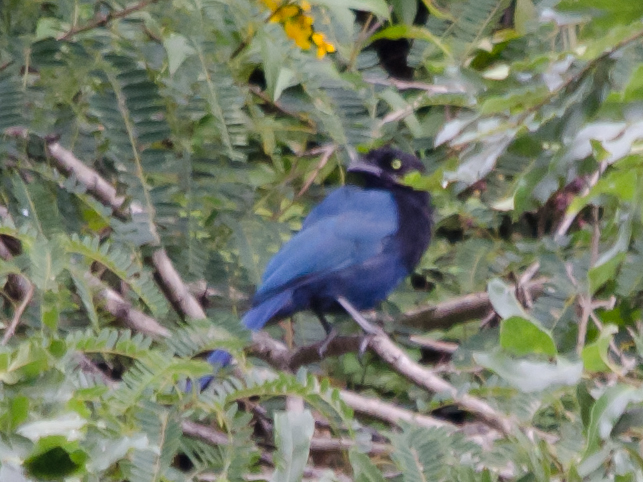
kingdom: Animalia
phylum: Chordata
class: Aves
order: Passeriformes
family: Corvidae
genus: Cyanocorax
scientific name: Cyanocorax melanocyaneus
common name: Bushy-crested jay
